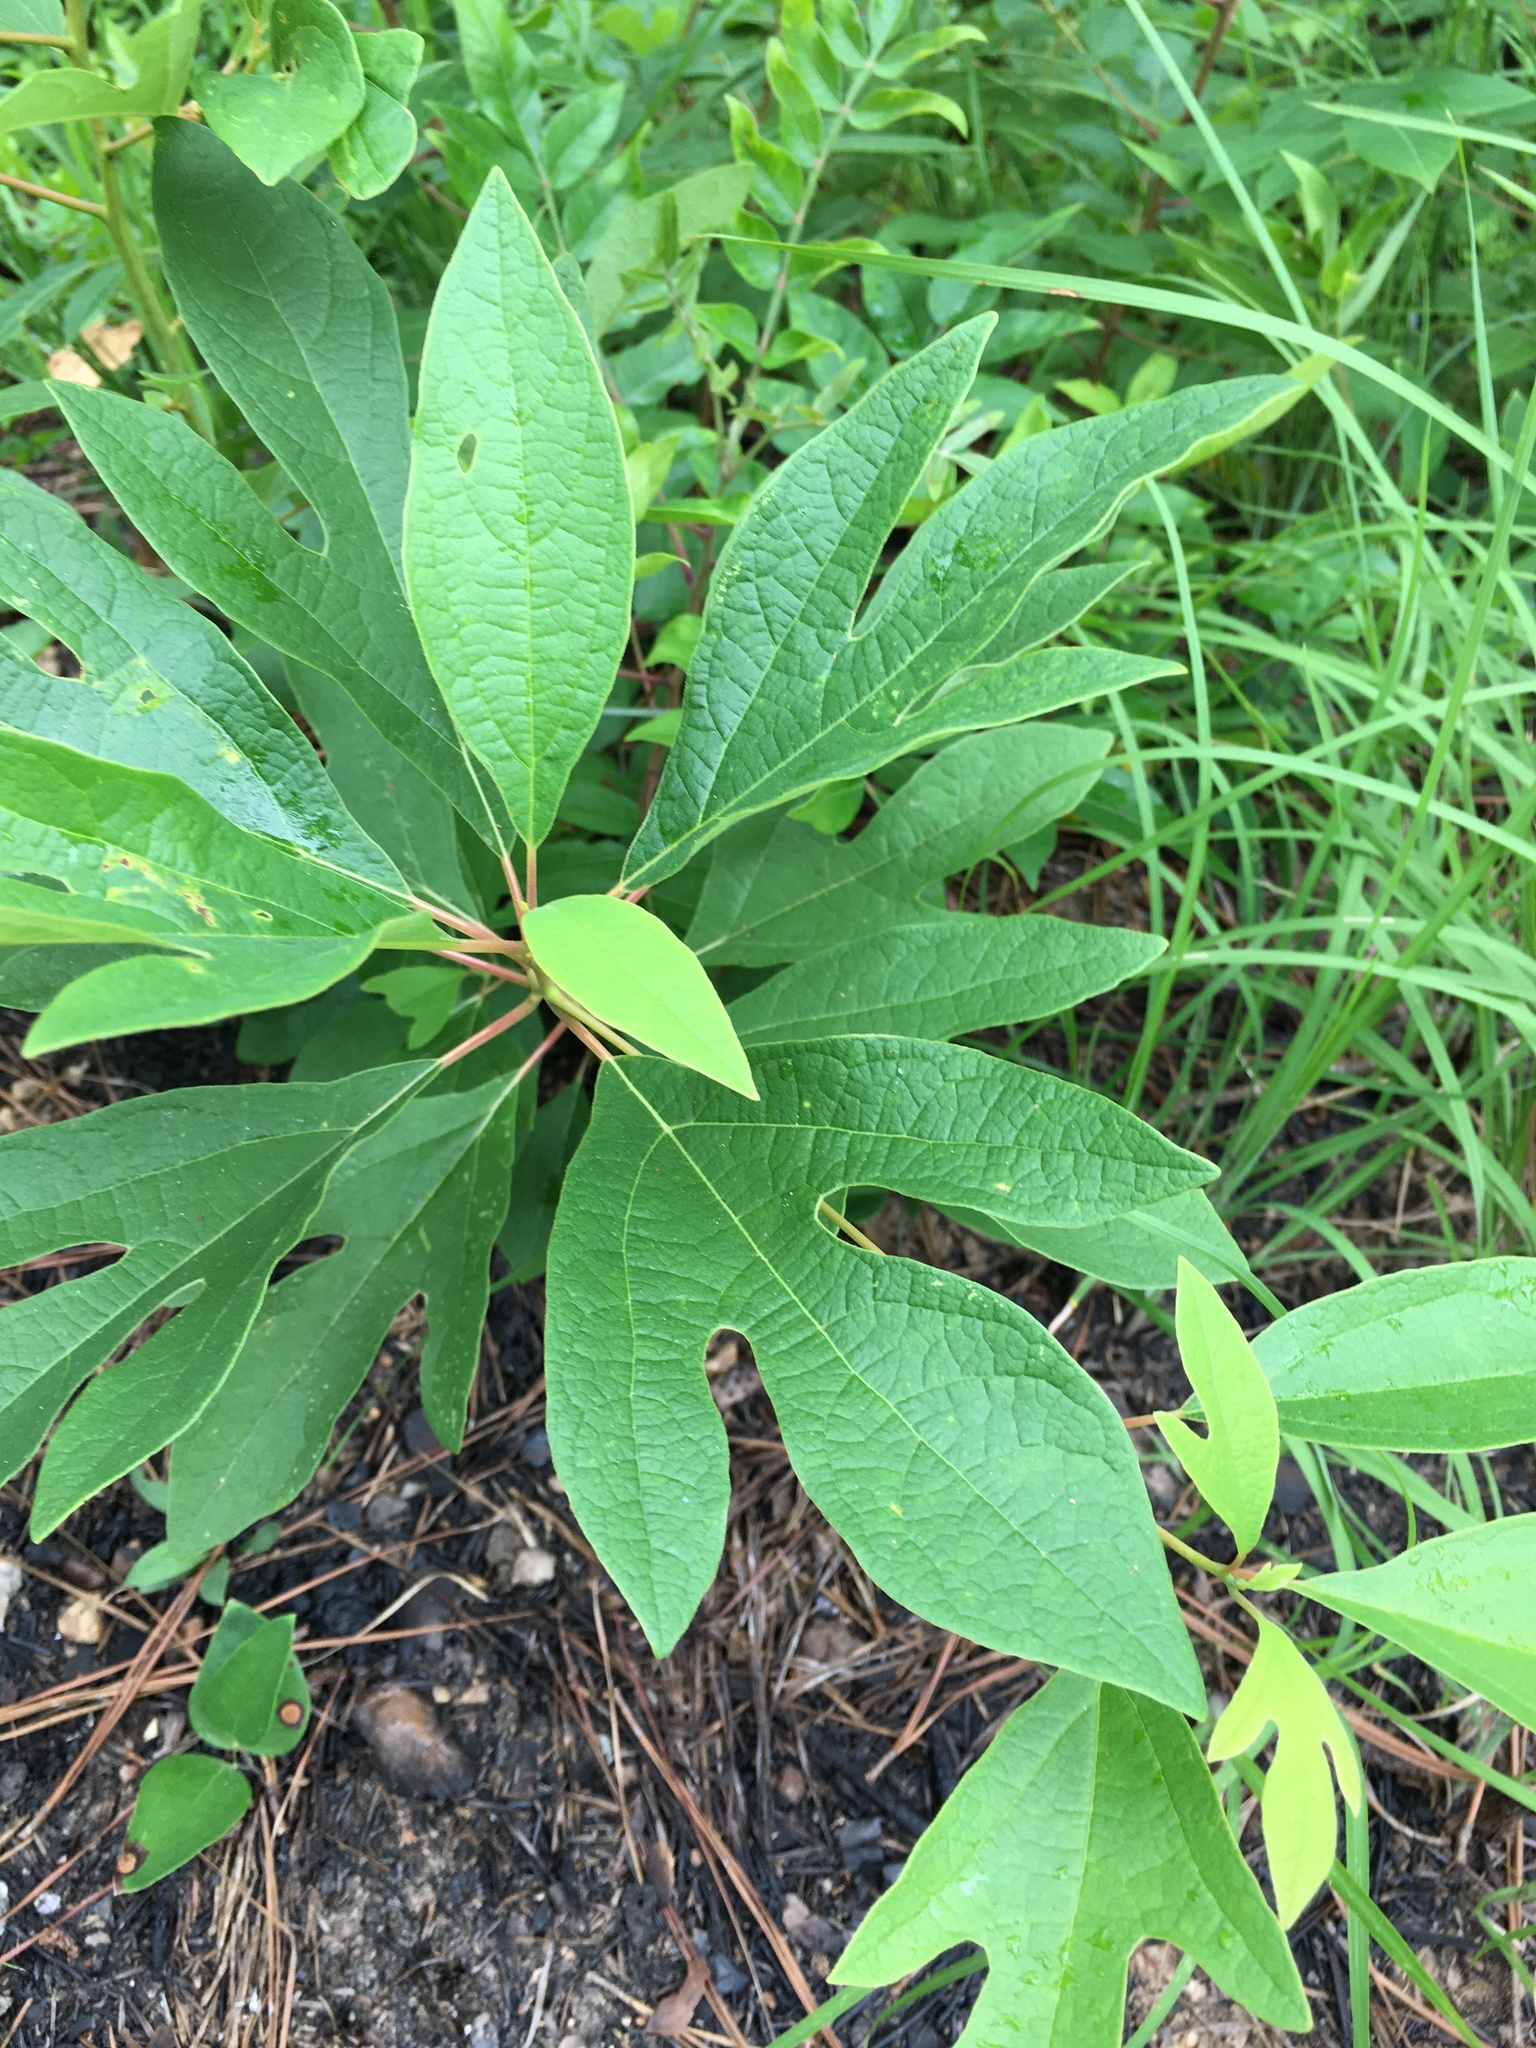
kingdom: Plantae
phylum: Tracheophyta
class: Magnoliopsida
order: Laurales
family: Lauraceae
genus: Sassafras
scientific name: Sassafras albidum
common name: Sassafras
